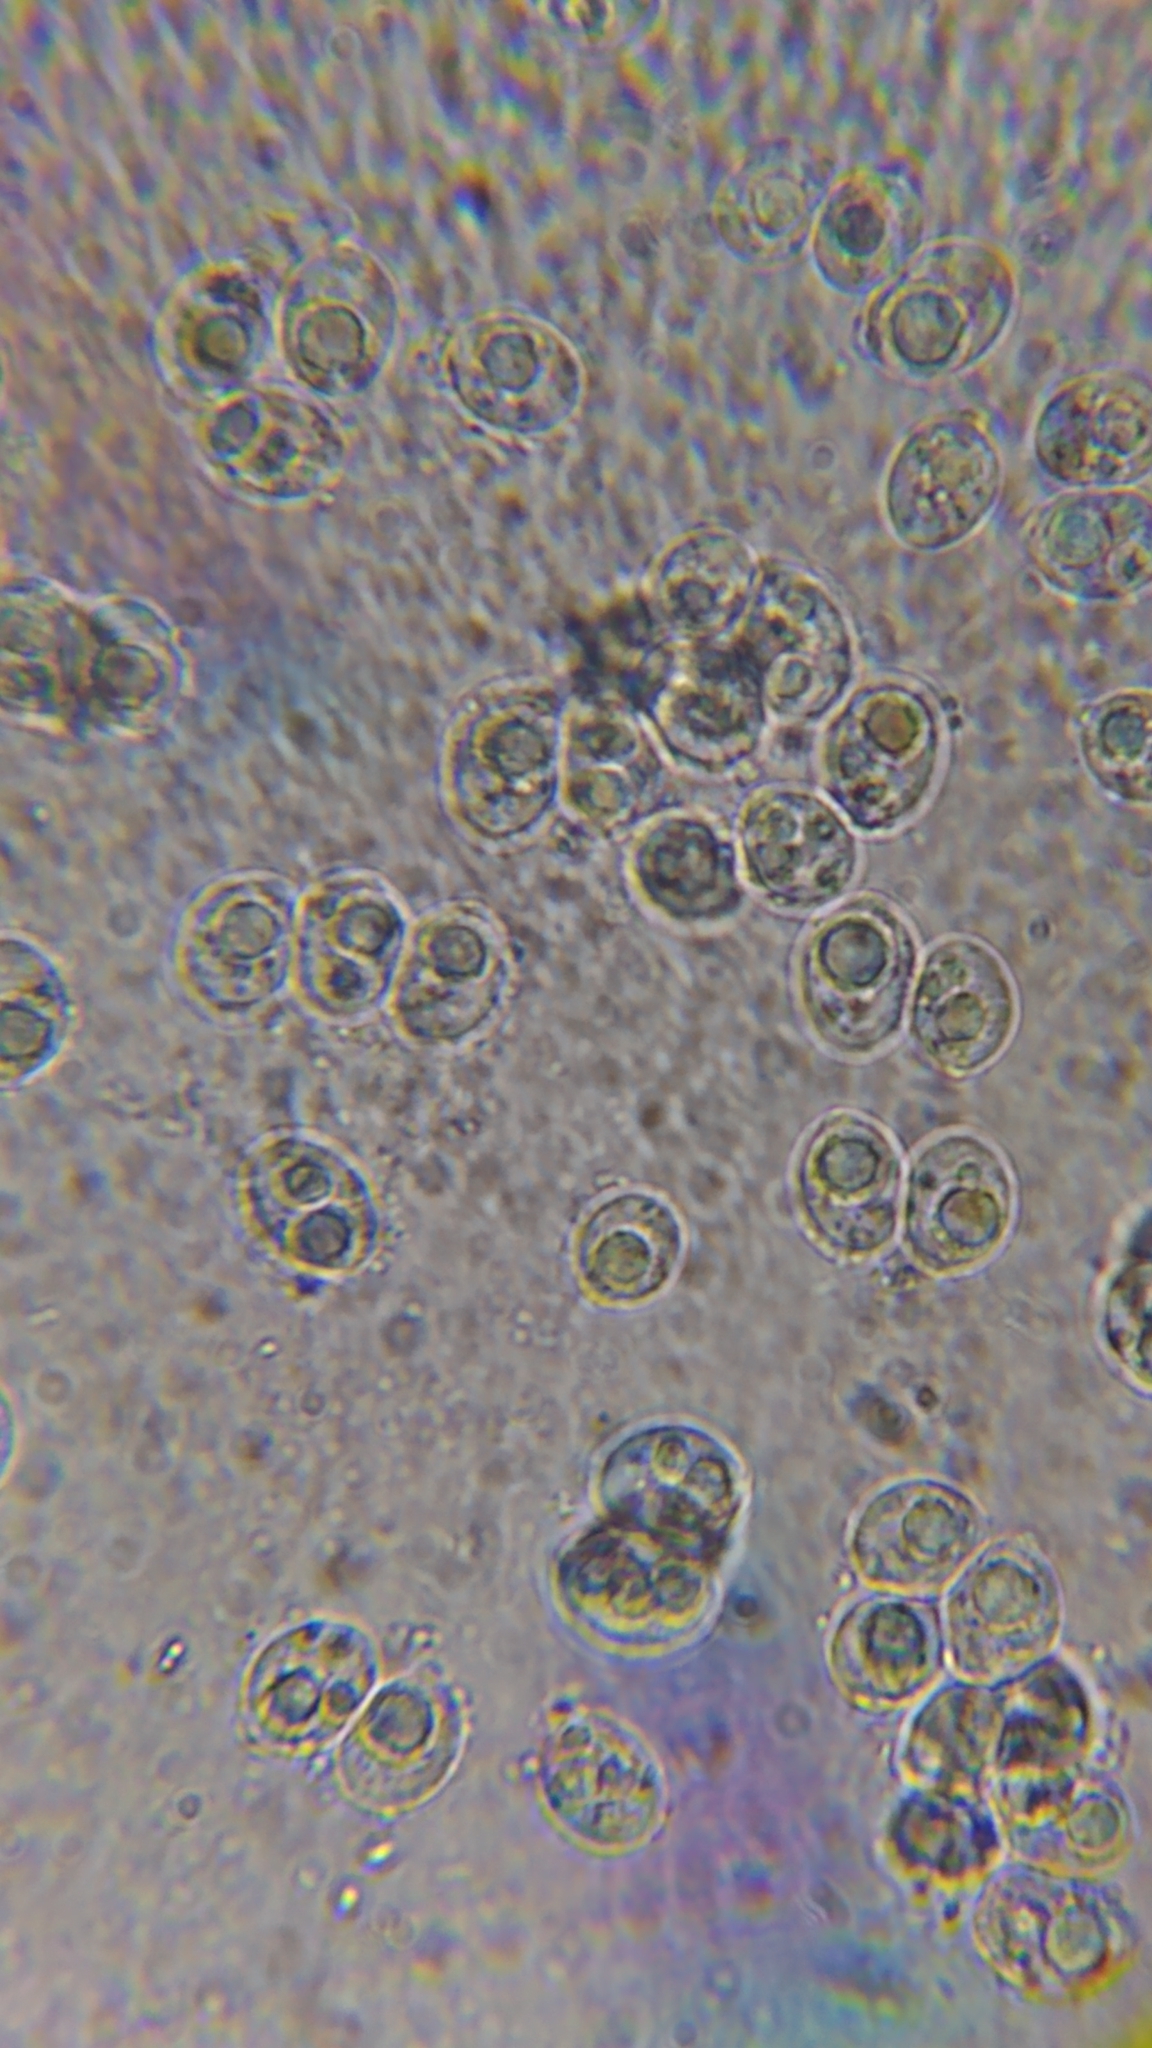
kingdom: Fungi
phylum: Basidiomycota
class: Tremellomycetes
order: Tremellales
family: Naemateliaceae
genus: Naematelia
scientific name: Naematelia aurantia
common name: Golden ear
